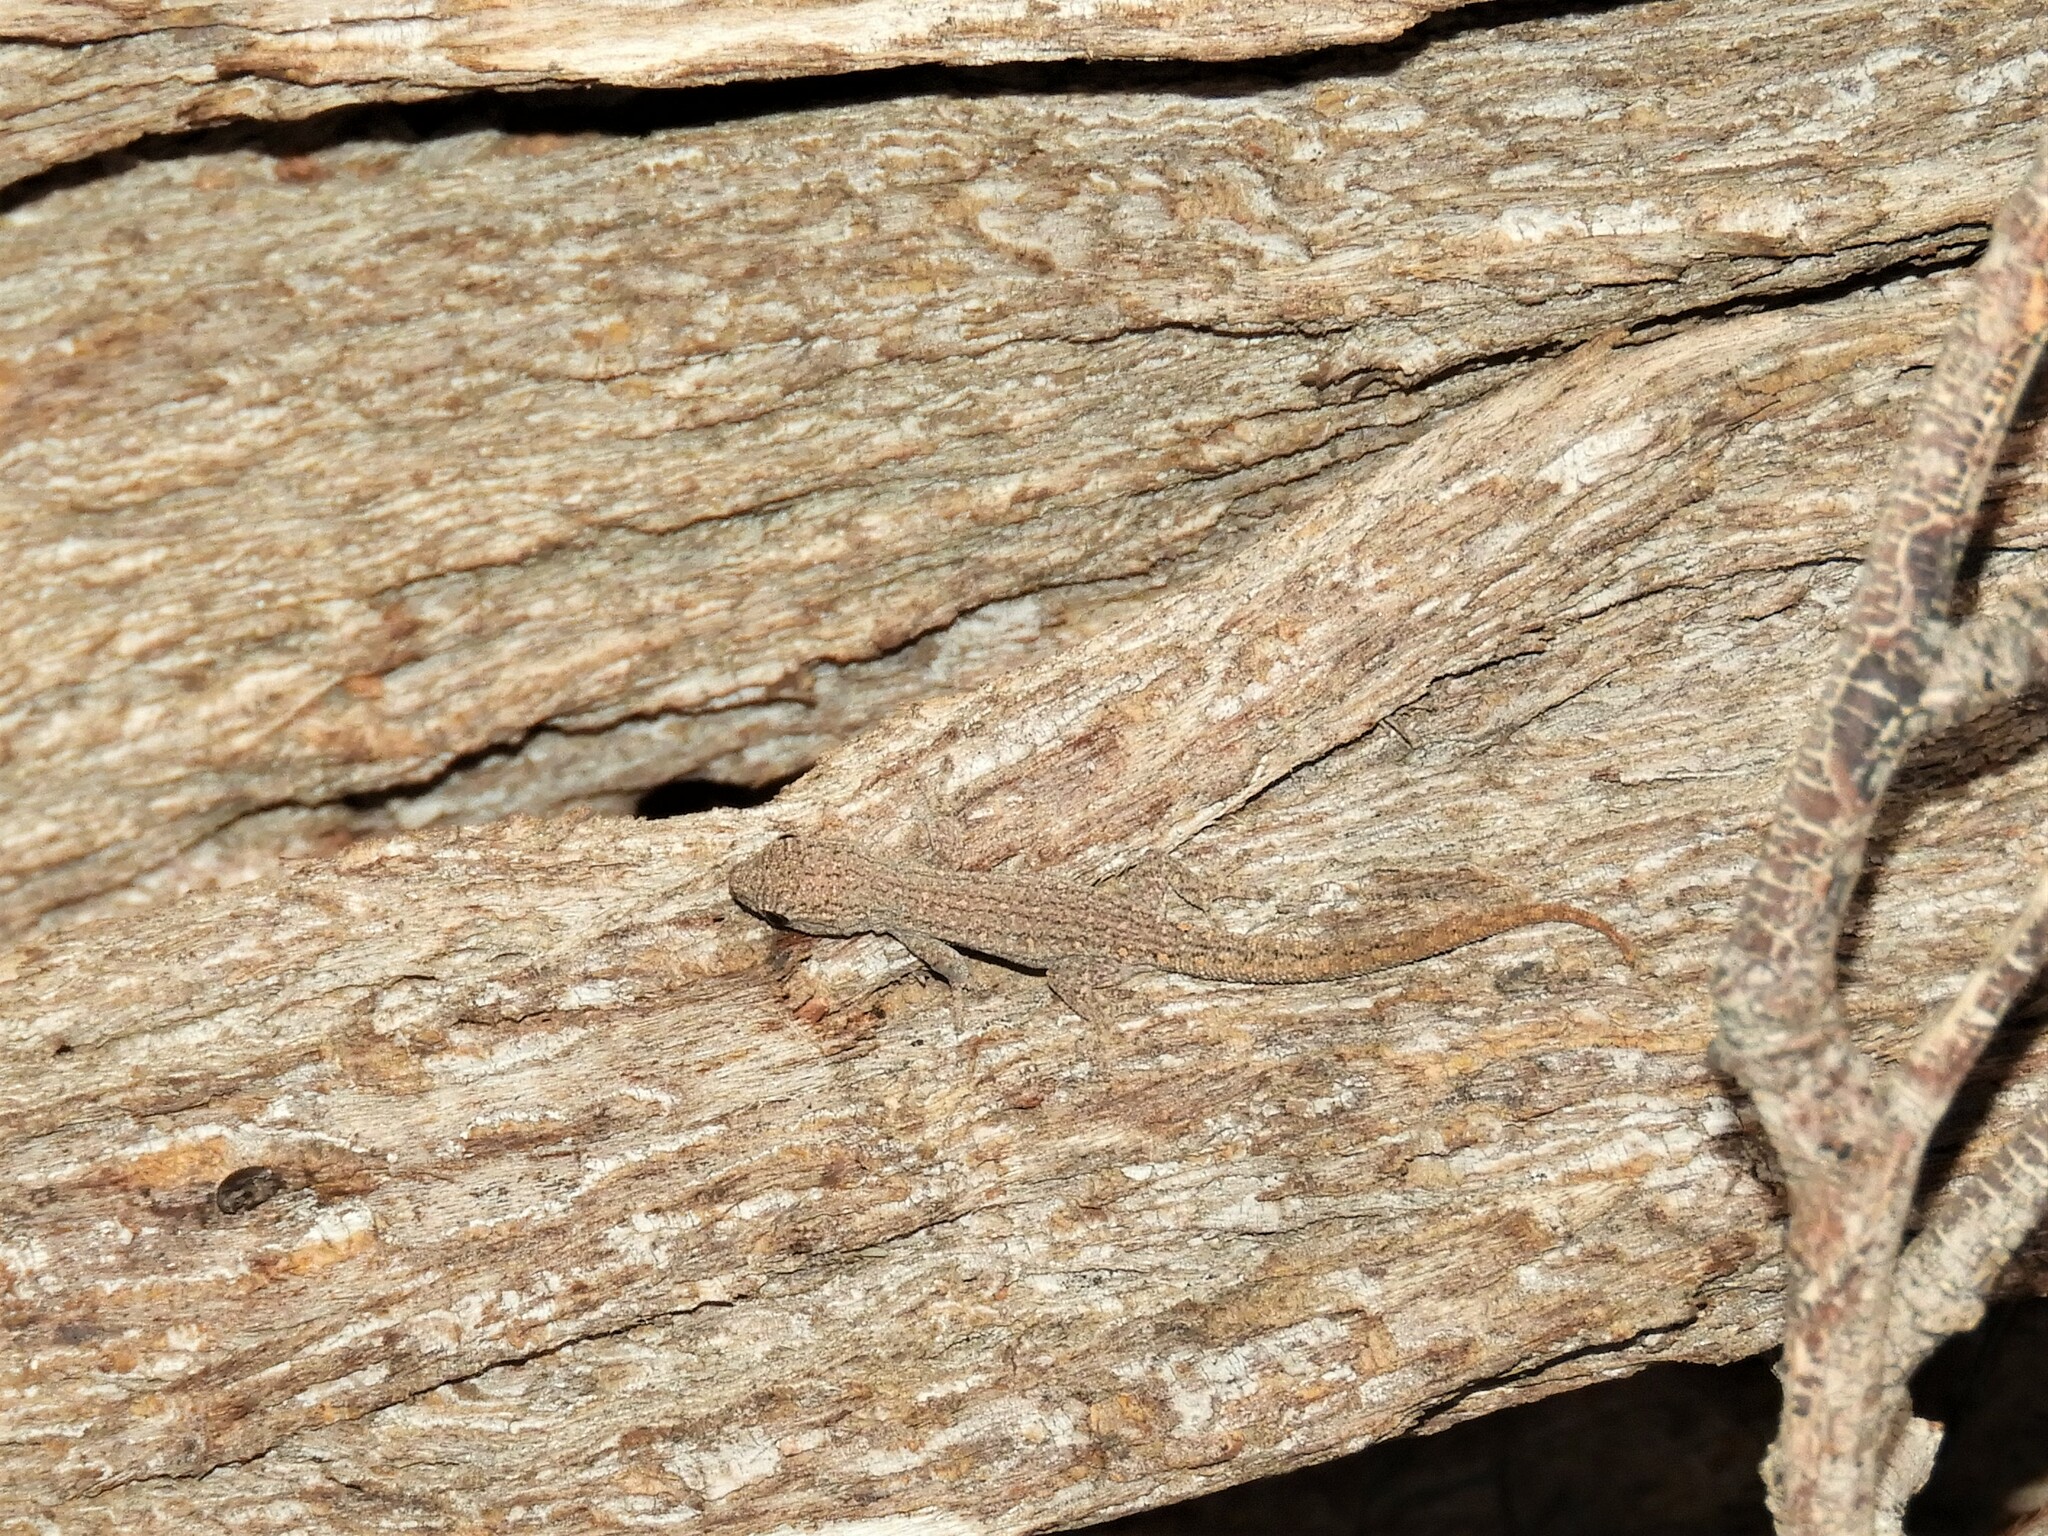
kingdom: Animalia
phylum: Chordata
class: Squamata
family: Gekkonidae
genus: Lygodactylus
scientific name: Lygodactylus bradfieldi
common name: Bradfield's dwarf gecko
